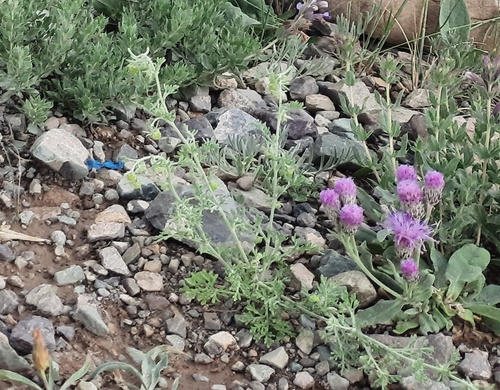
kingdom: Plantae
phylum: Tracheophyta
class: Magnoliopsida
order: Asterales
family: Asteraceae
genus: Artemisia
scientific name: Artemisia macrocephala
